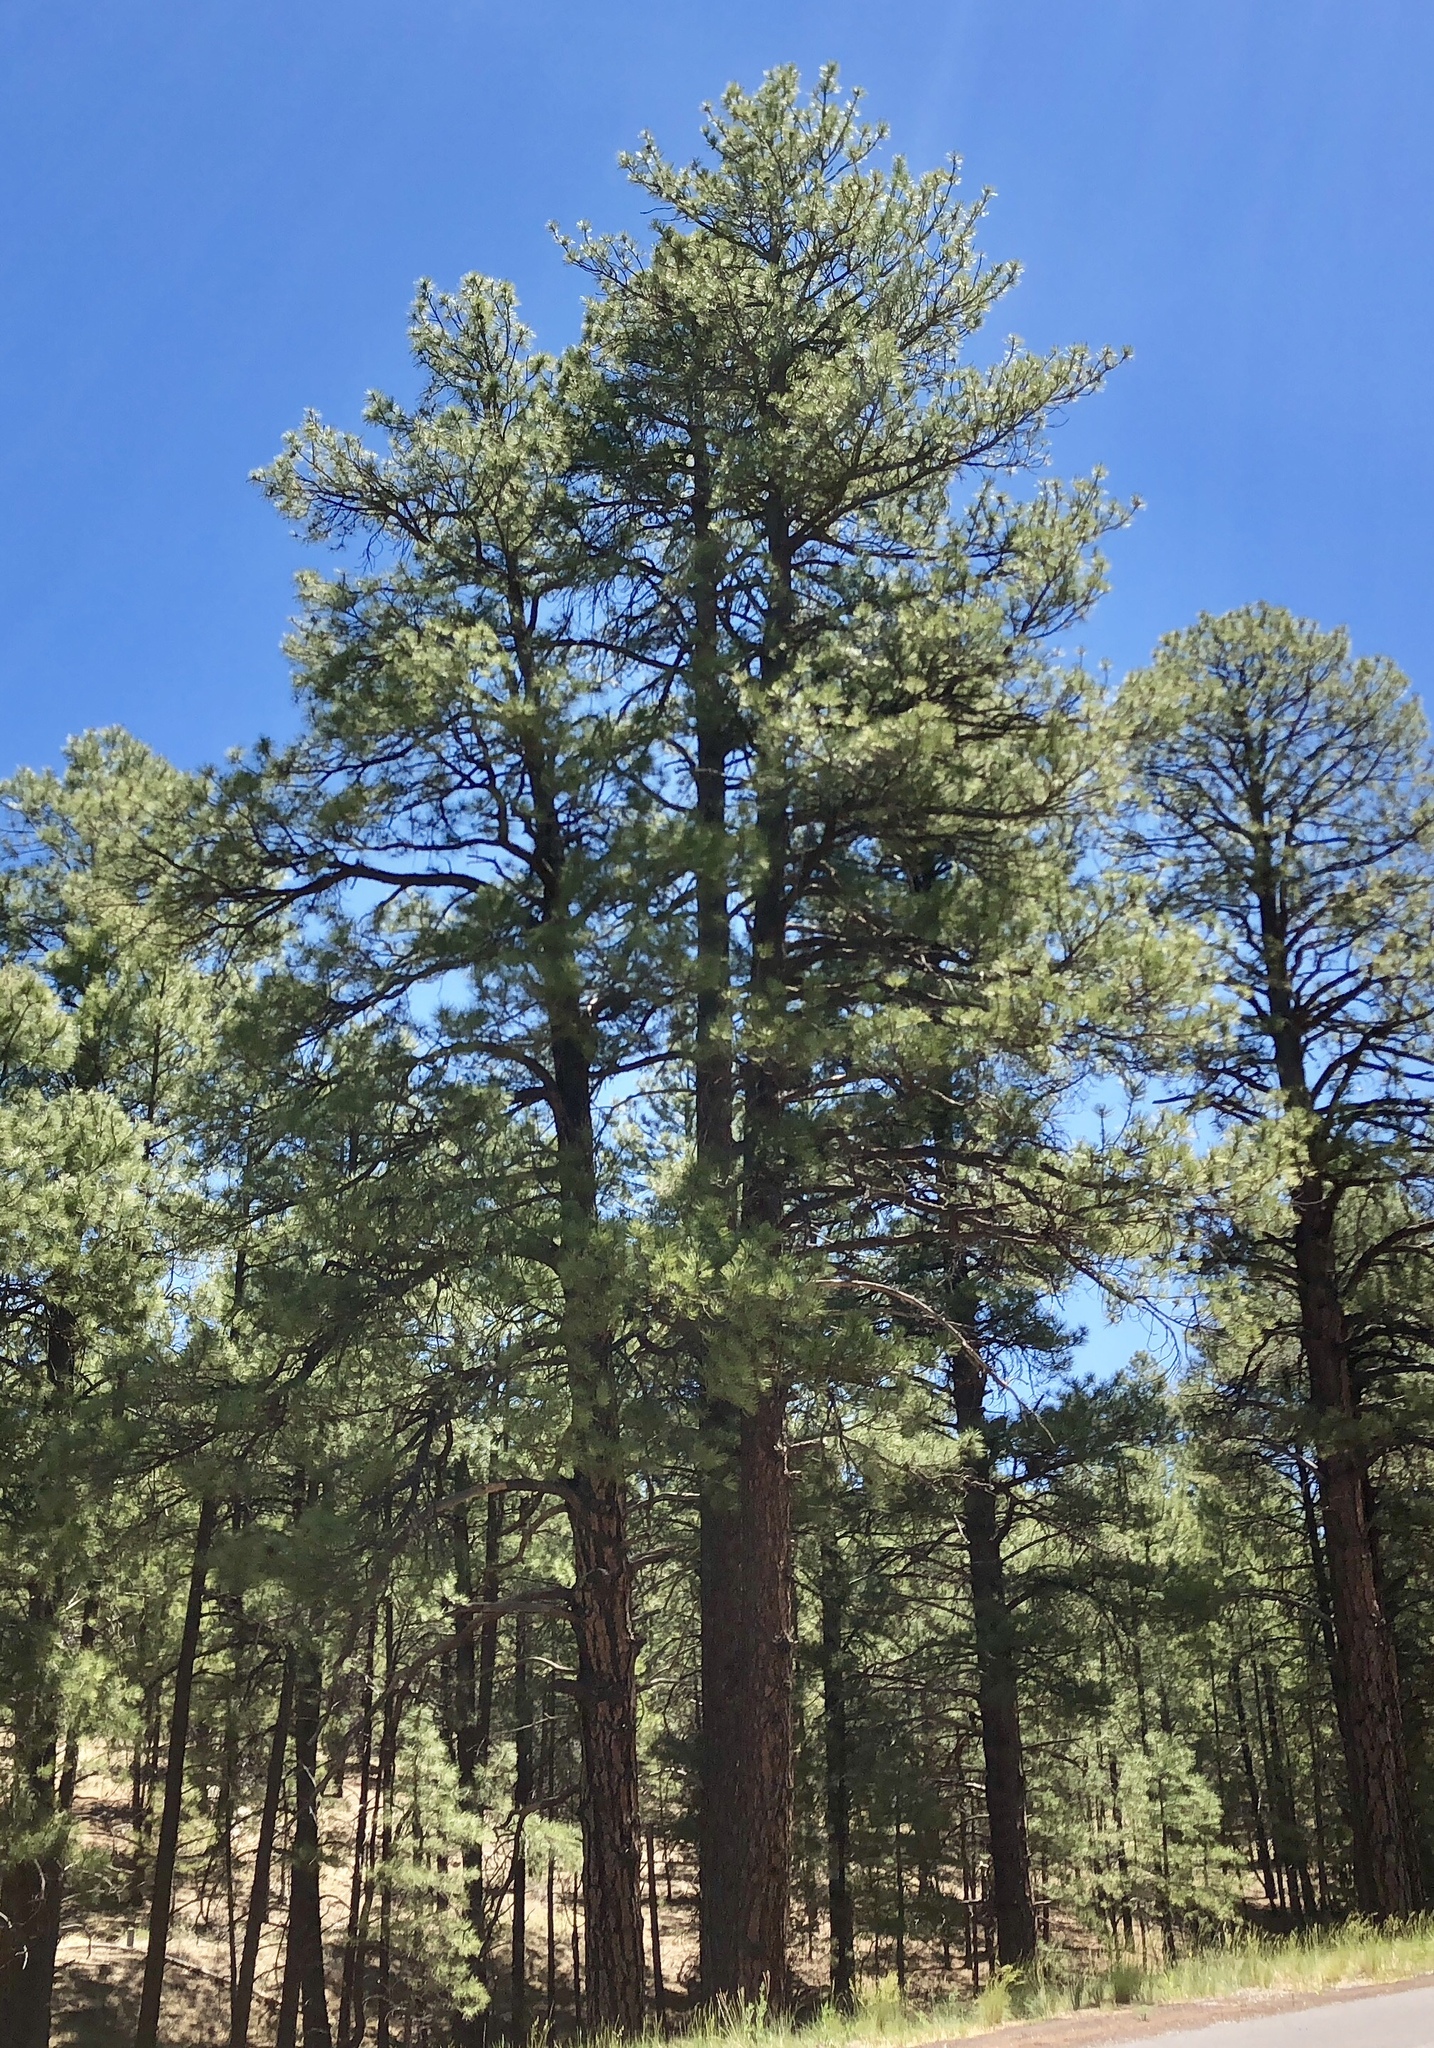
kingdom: Plantae
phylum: Tracheophyta
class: Pinopsida
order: Pinales
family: Pinaceae
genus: Pinus
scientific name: Pinus ponderosa
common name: Western yellow-pine
